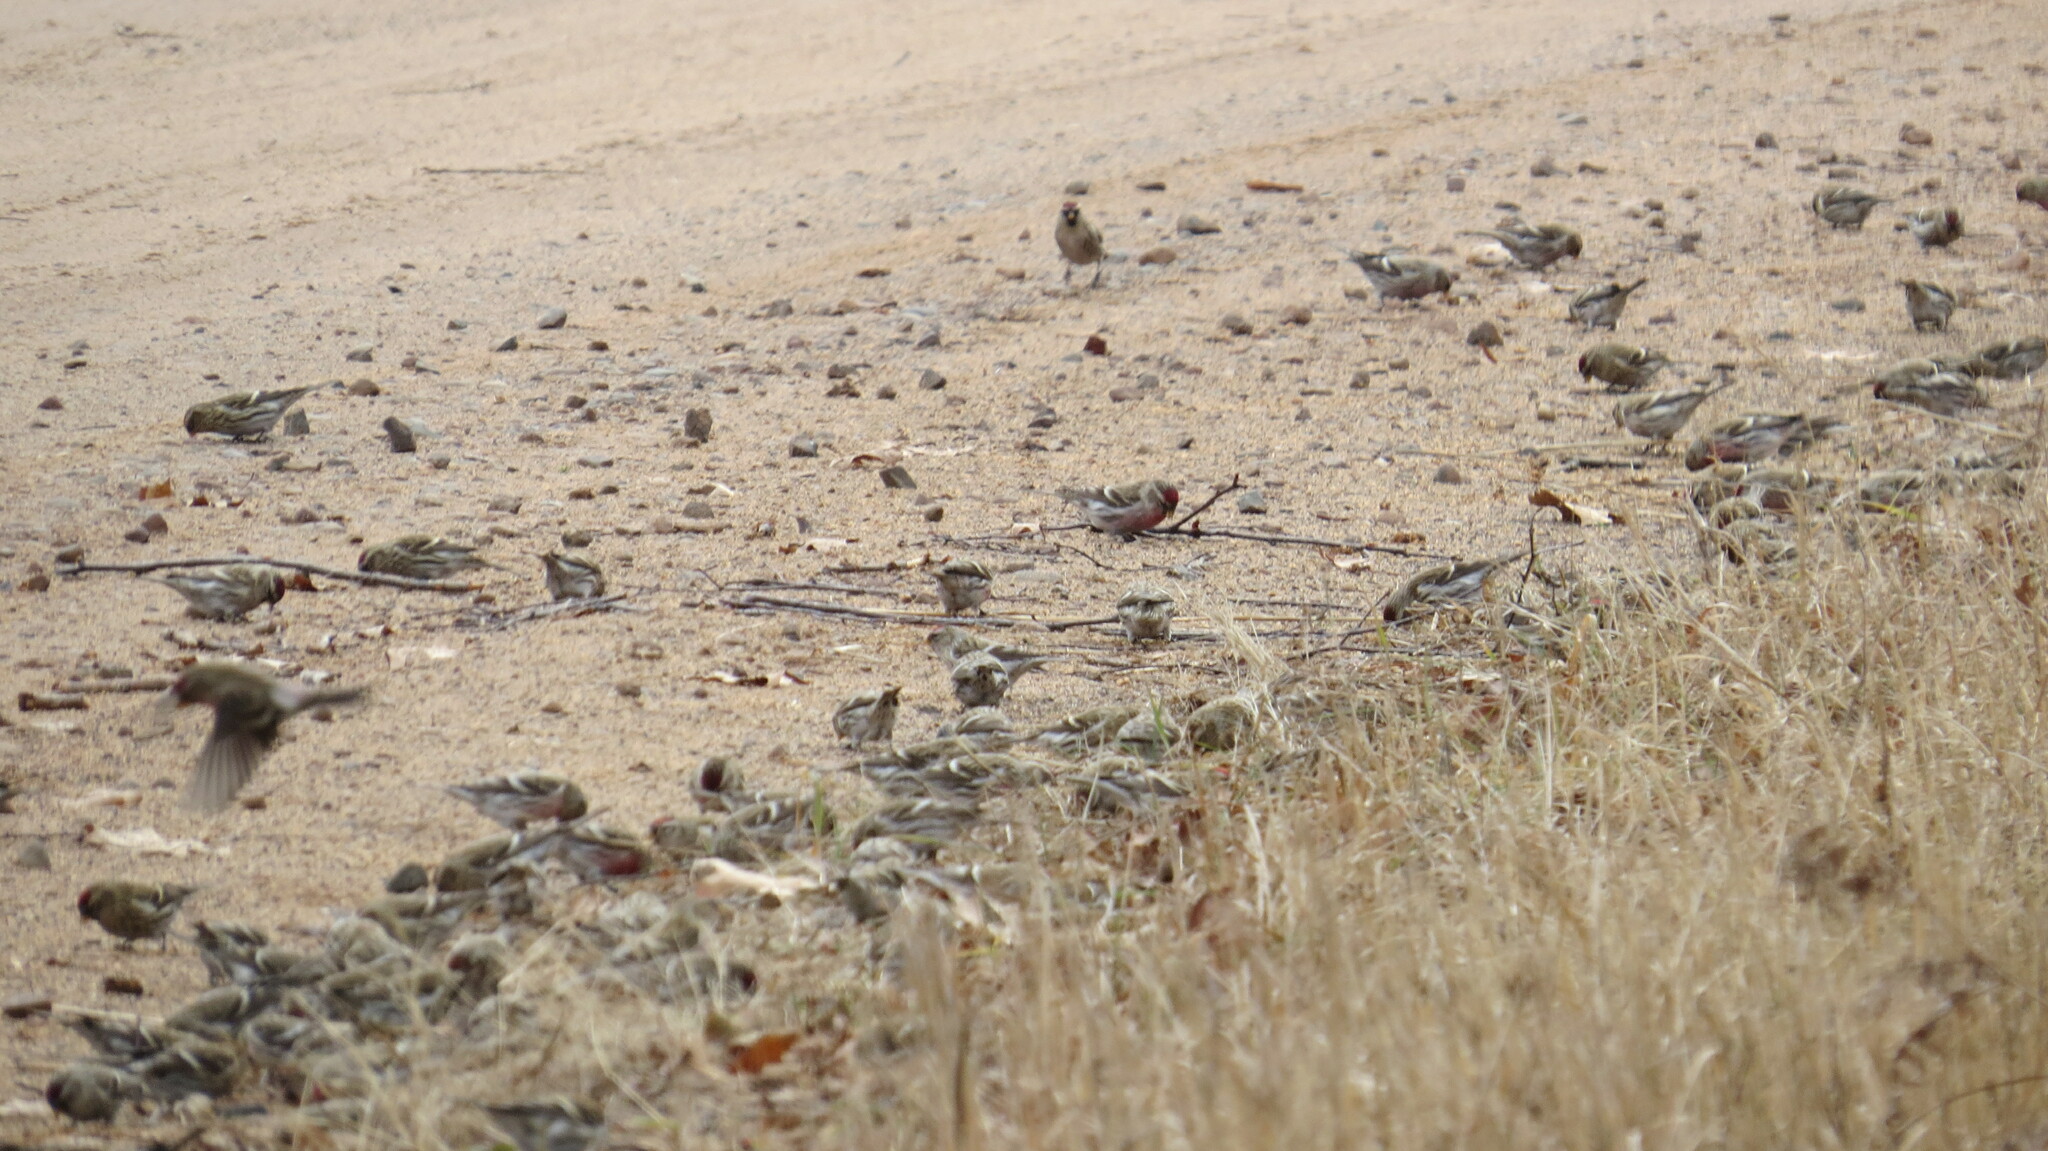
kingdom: Animalia
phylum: Chordata
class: Aves
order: Passeriformes
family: Fringillidae
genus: Acanthis
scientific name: Acanthis flammea
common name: Common redpoll
